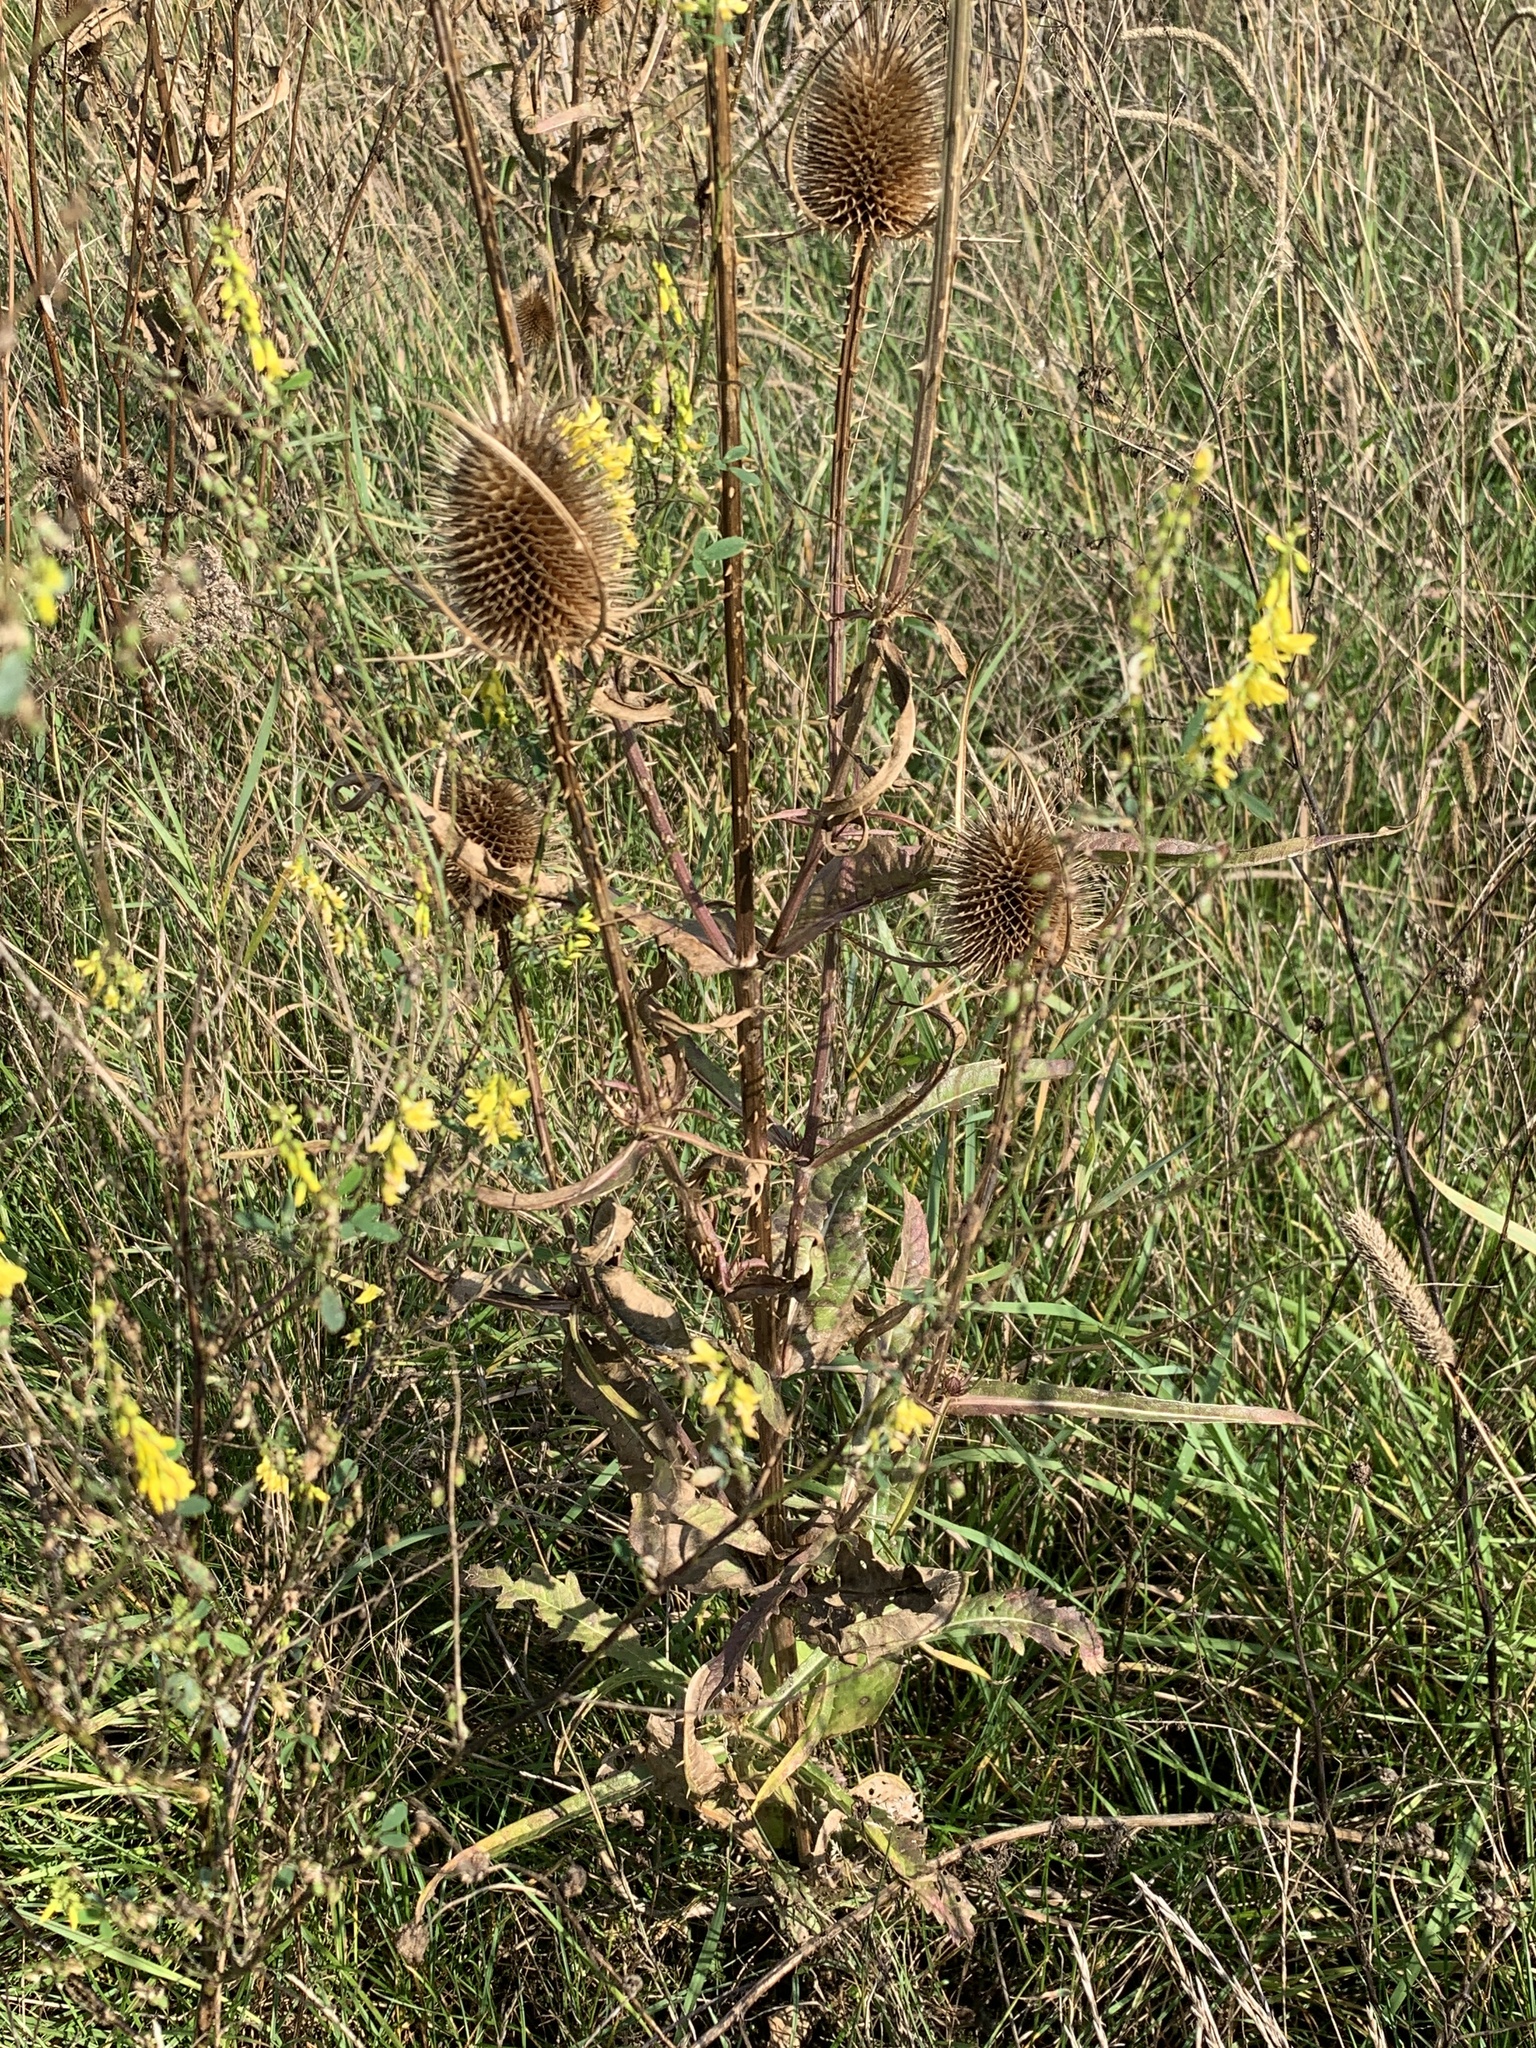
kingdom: Plantae
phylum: Tracheophyta
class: Magnoliopsida
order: Fabales
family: Fabaceae
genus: Melilotus
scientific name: Melilotus officinalis
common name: Sweetclover
